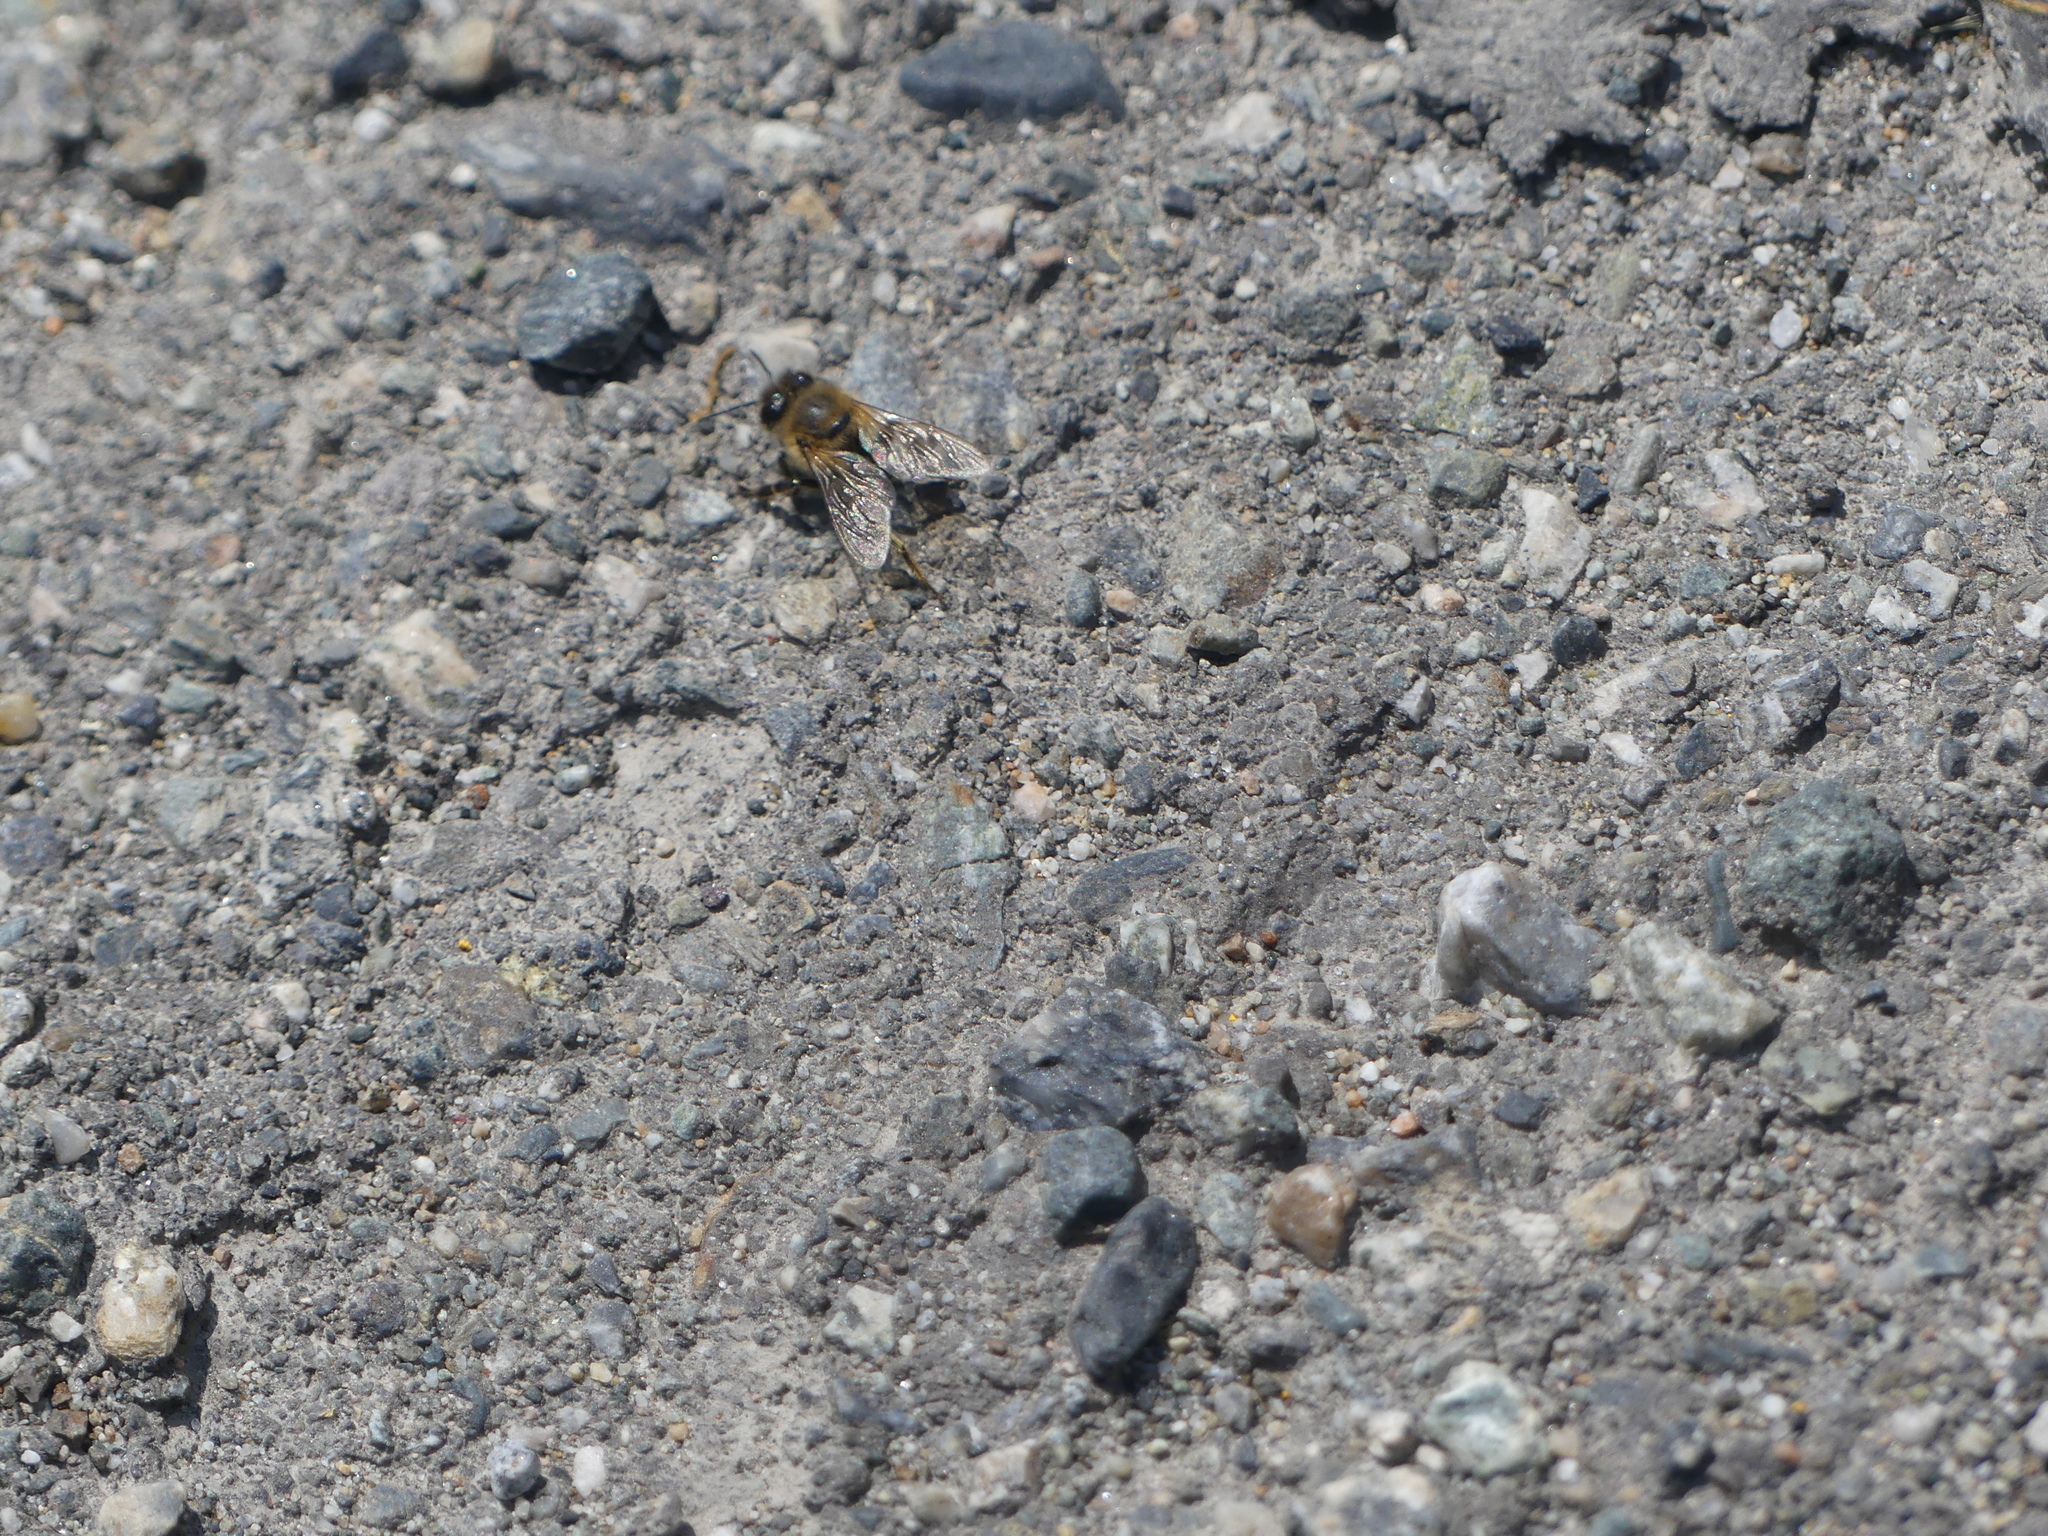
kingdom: Animalia
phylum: Arthropoda
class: Insecta
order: Hymenoptera
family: Apidae
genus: Apis
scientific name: Apis mellifera
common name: Honey bee
